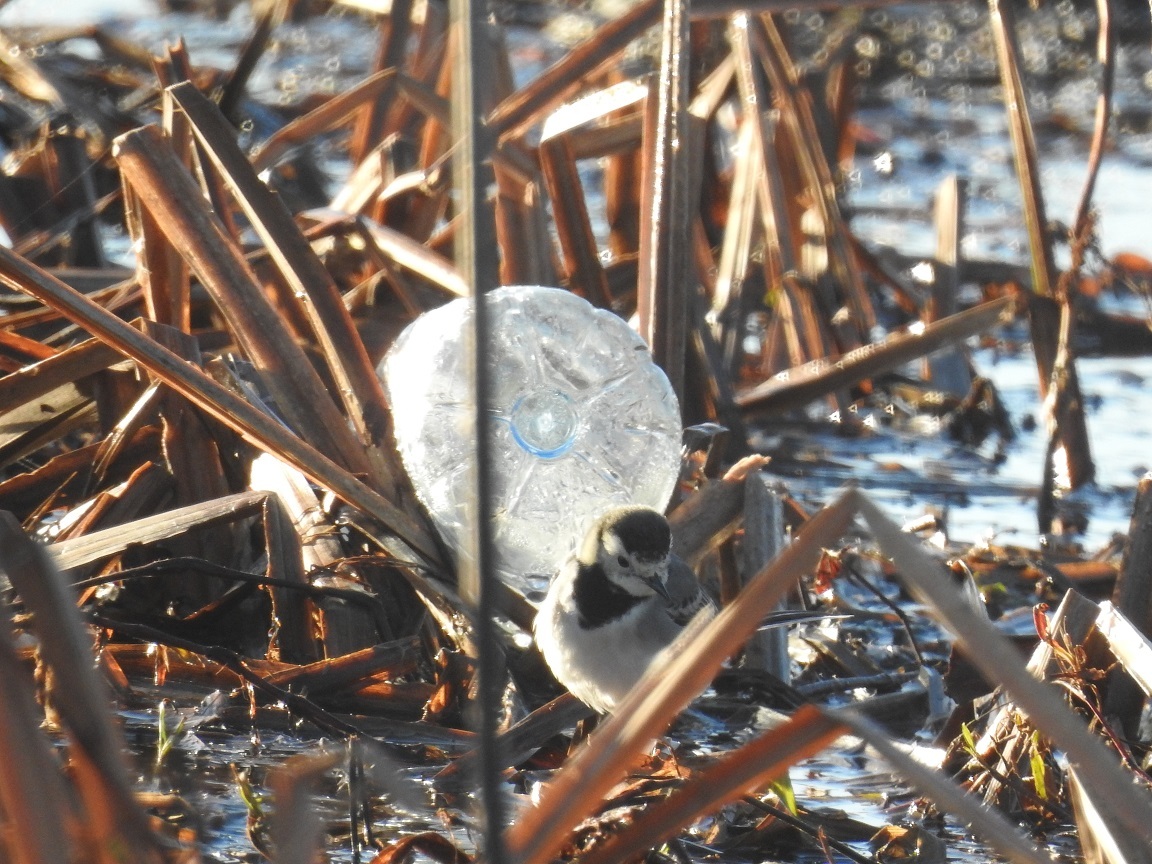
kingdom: Animalia
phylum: Chordata
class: Aves
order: Passeriformes
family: Motacillidae
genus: Motacilla
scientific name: Motacilla alba
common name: White wagtail
